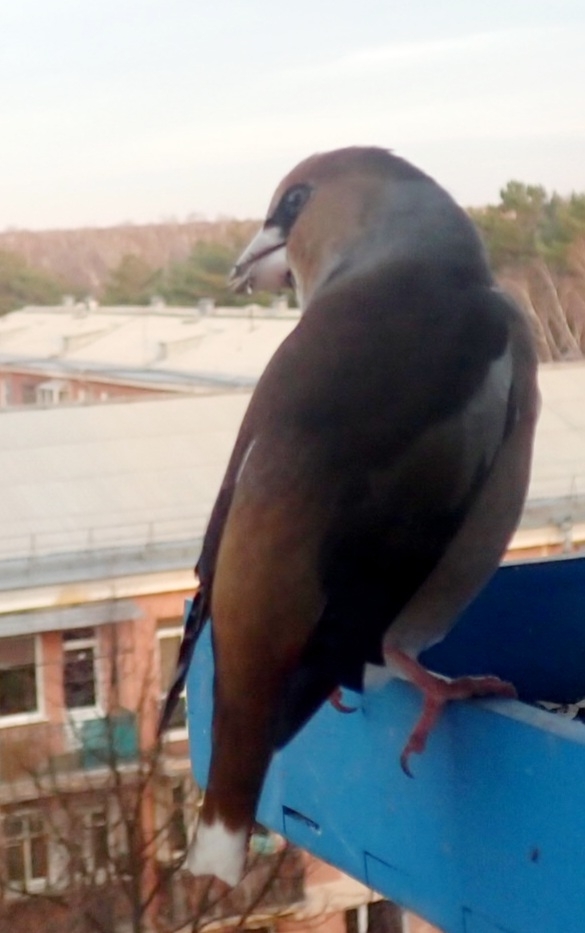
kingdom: Animalia
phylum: Chordata
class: Aves
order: Passeriformes
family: Fringillidae
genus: Coccothraustes
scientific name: Coccothraustes coccothraustes
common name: Hawfinch
